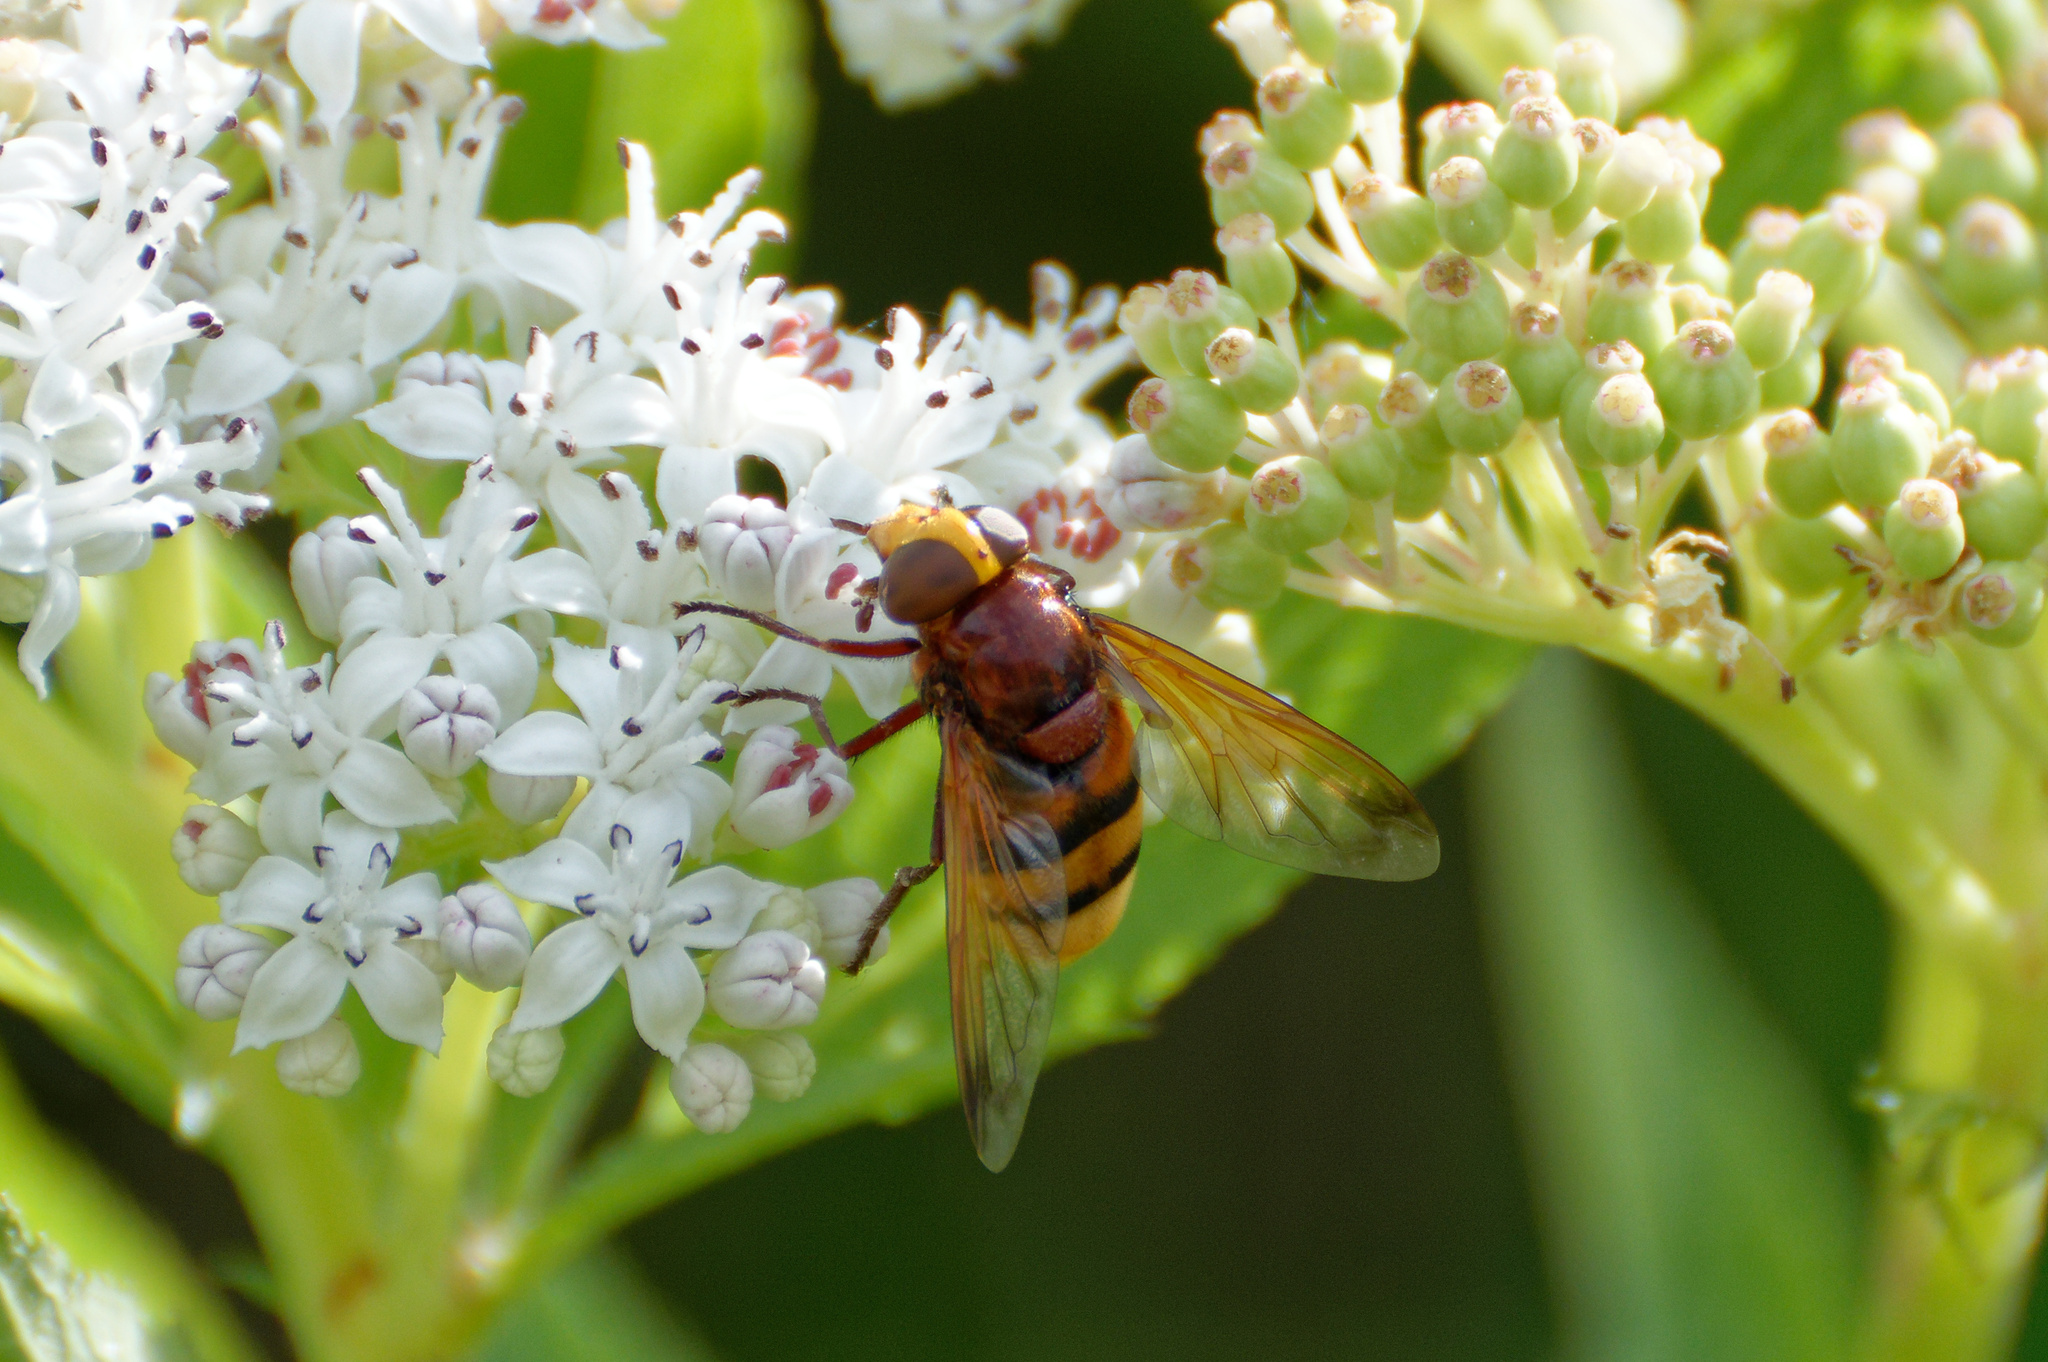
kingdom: Animalia
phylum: Arthropoda
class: Insecta
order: Diptera
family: Syrphidae
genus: Volucella
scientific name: Volucella zonaria
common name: Hornet hoverfly
